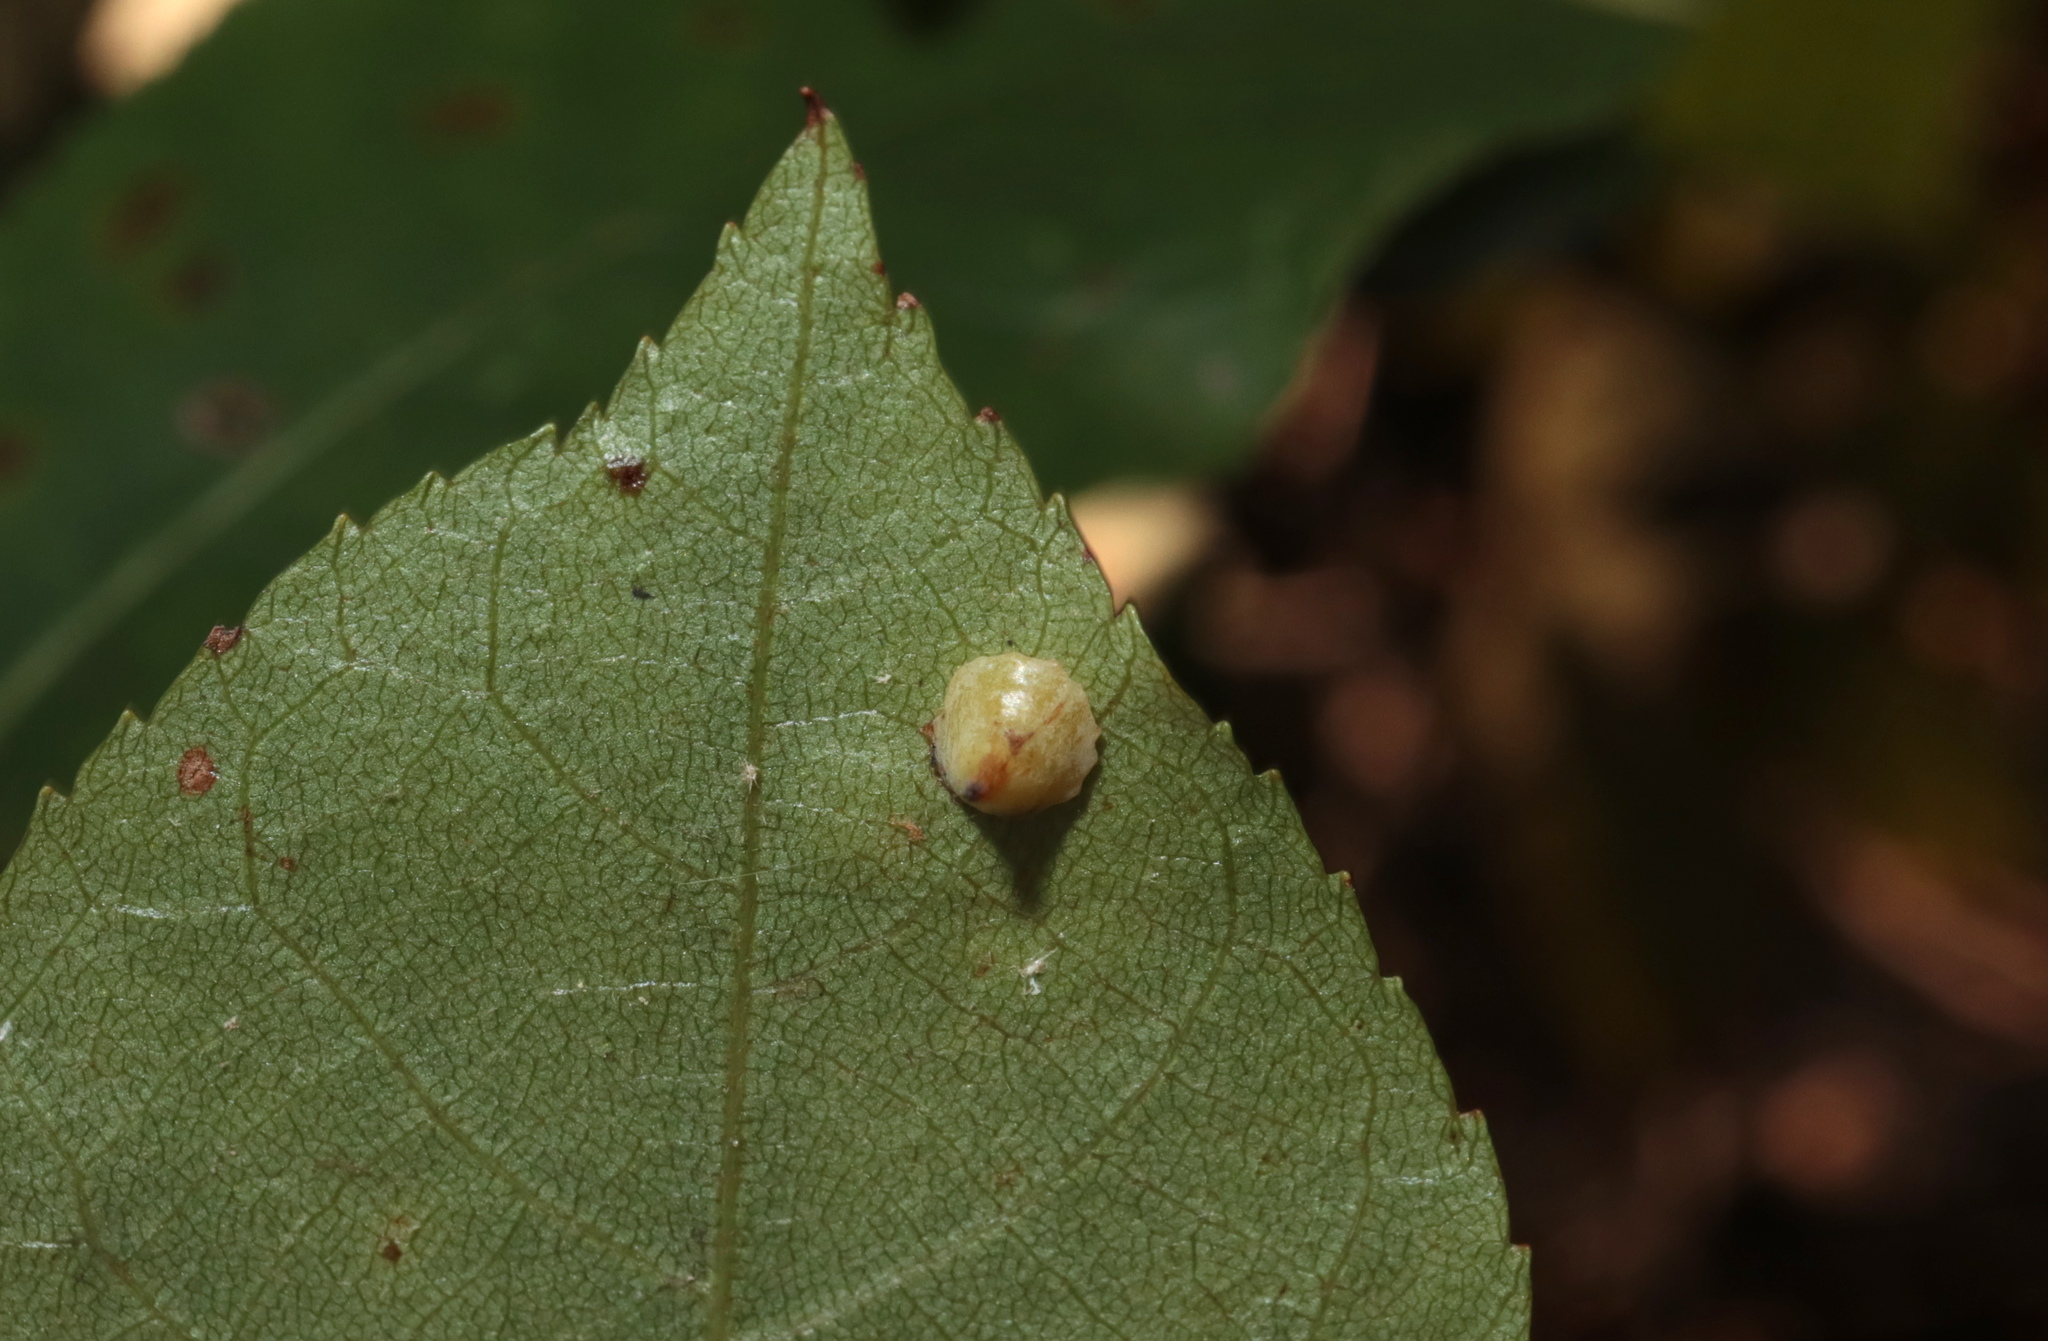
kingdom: Animalia
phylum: Arthropoda
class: Insecta
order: Diptera
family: Cecidomyiidae
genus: Caryomyia
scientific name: Caryomyia sanguinolenta
